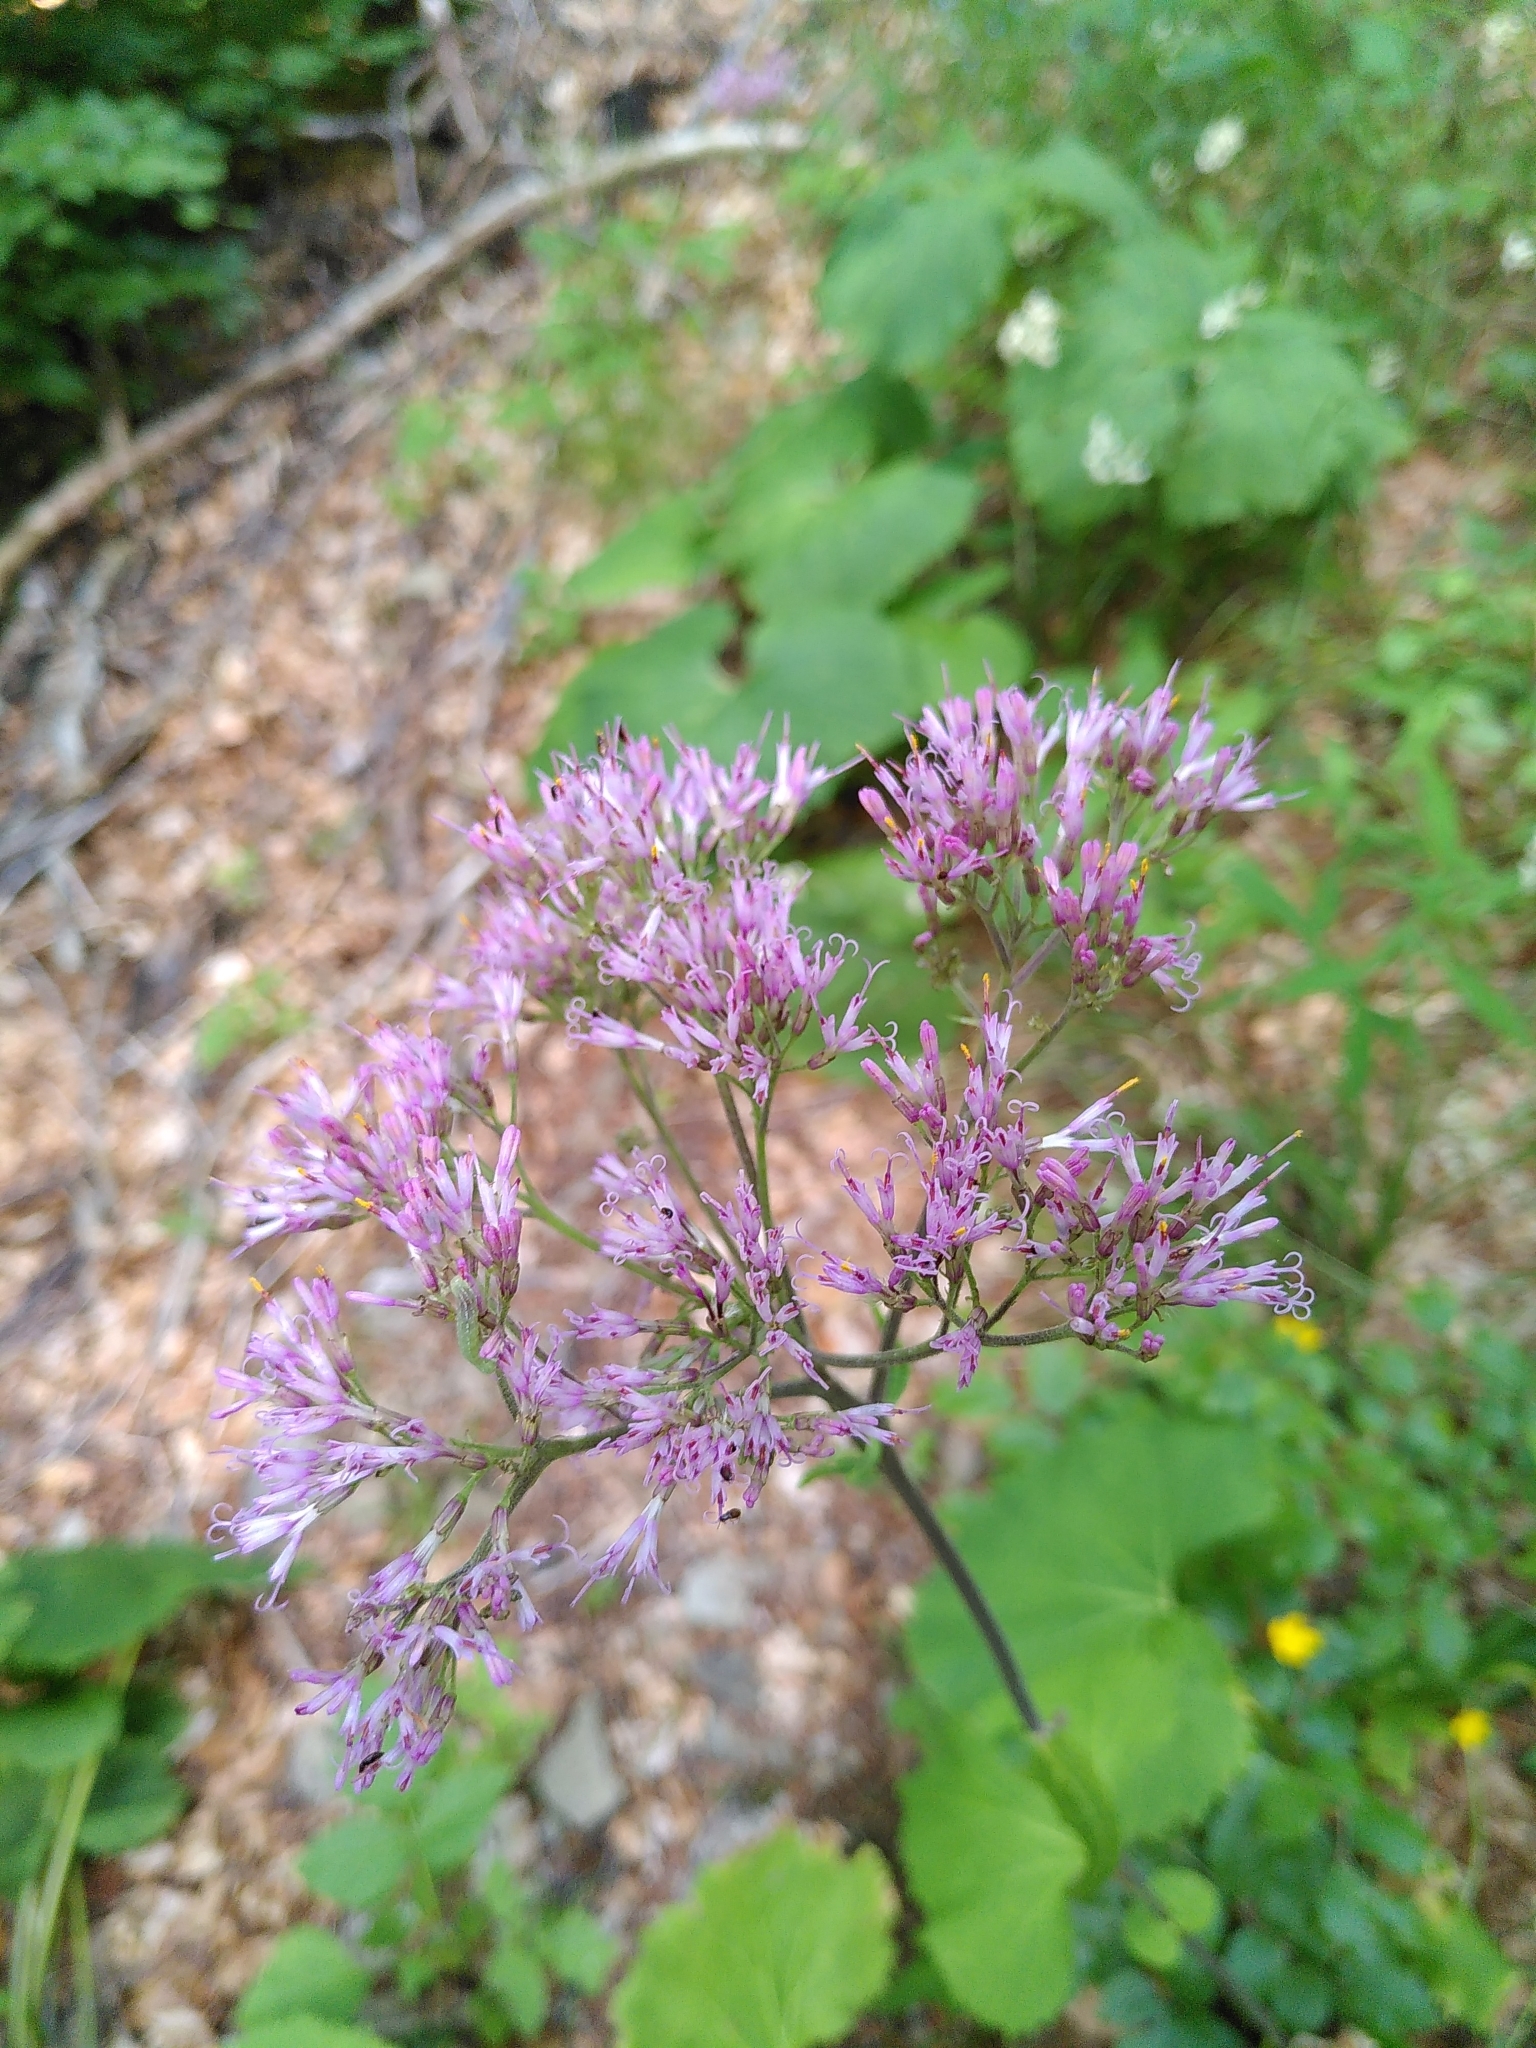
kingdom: Plantae
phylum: Tracheophyta
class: Magnoliopsida
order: Asterales
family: Asteraceae
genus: Adenostyles
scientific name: Adenostyles alliariae
